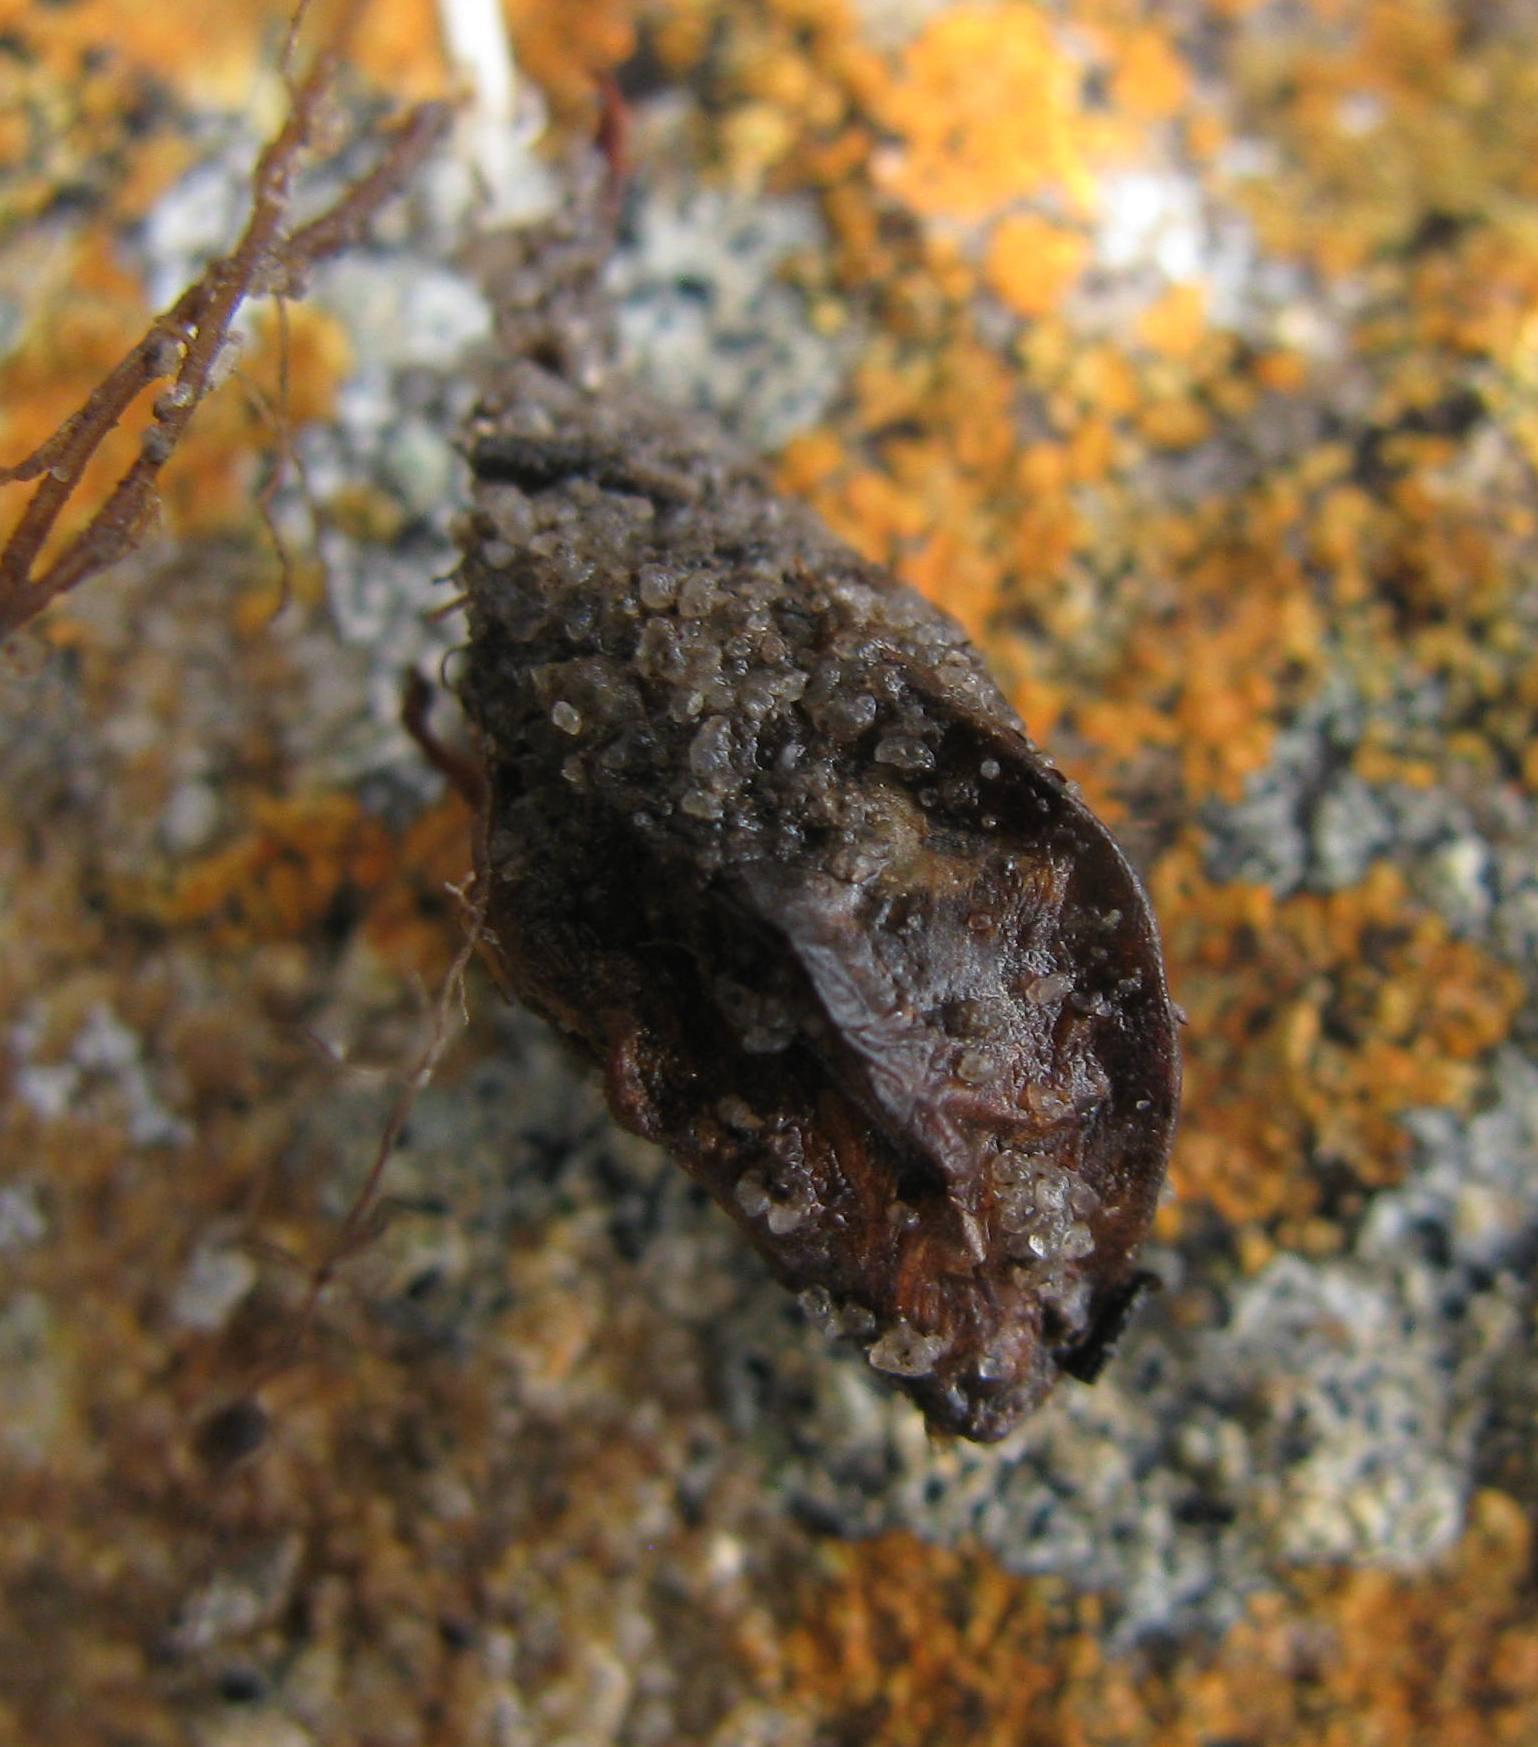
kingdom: Plantae
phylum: Tracheophyta
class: Magnoliopsida
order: Oxalidales
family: Oxalidaceae
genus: Oxalis
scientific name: Oxalis goniorhiza
